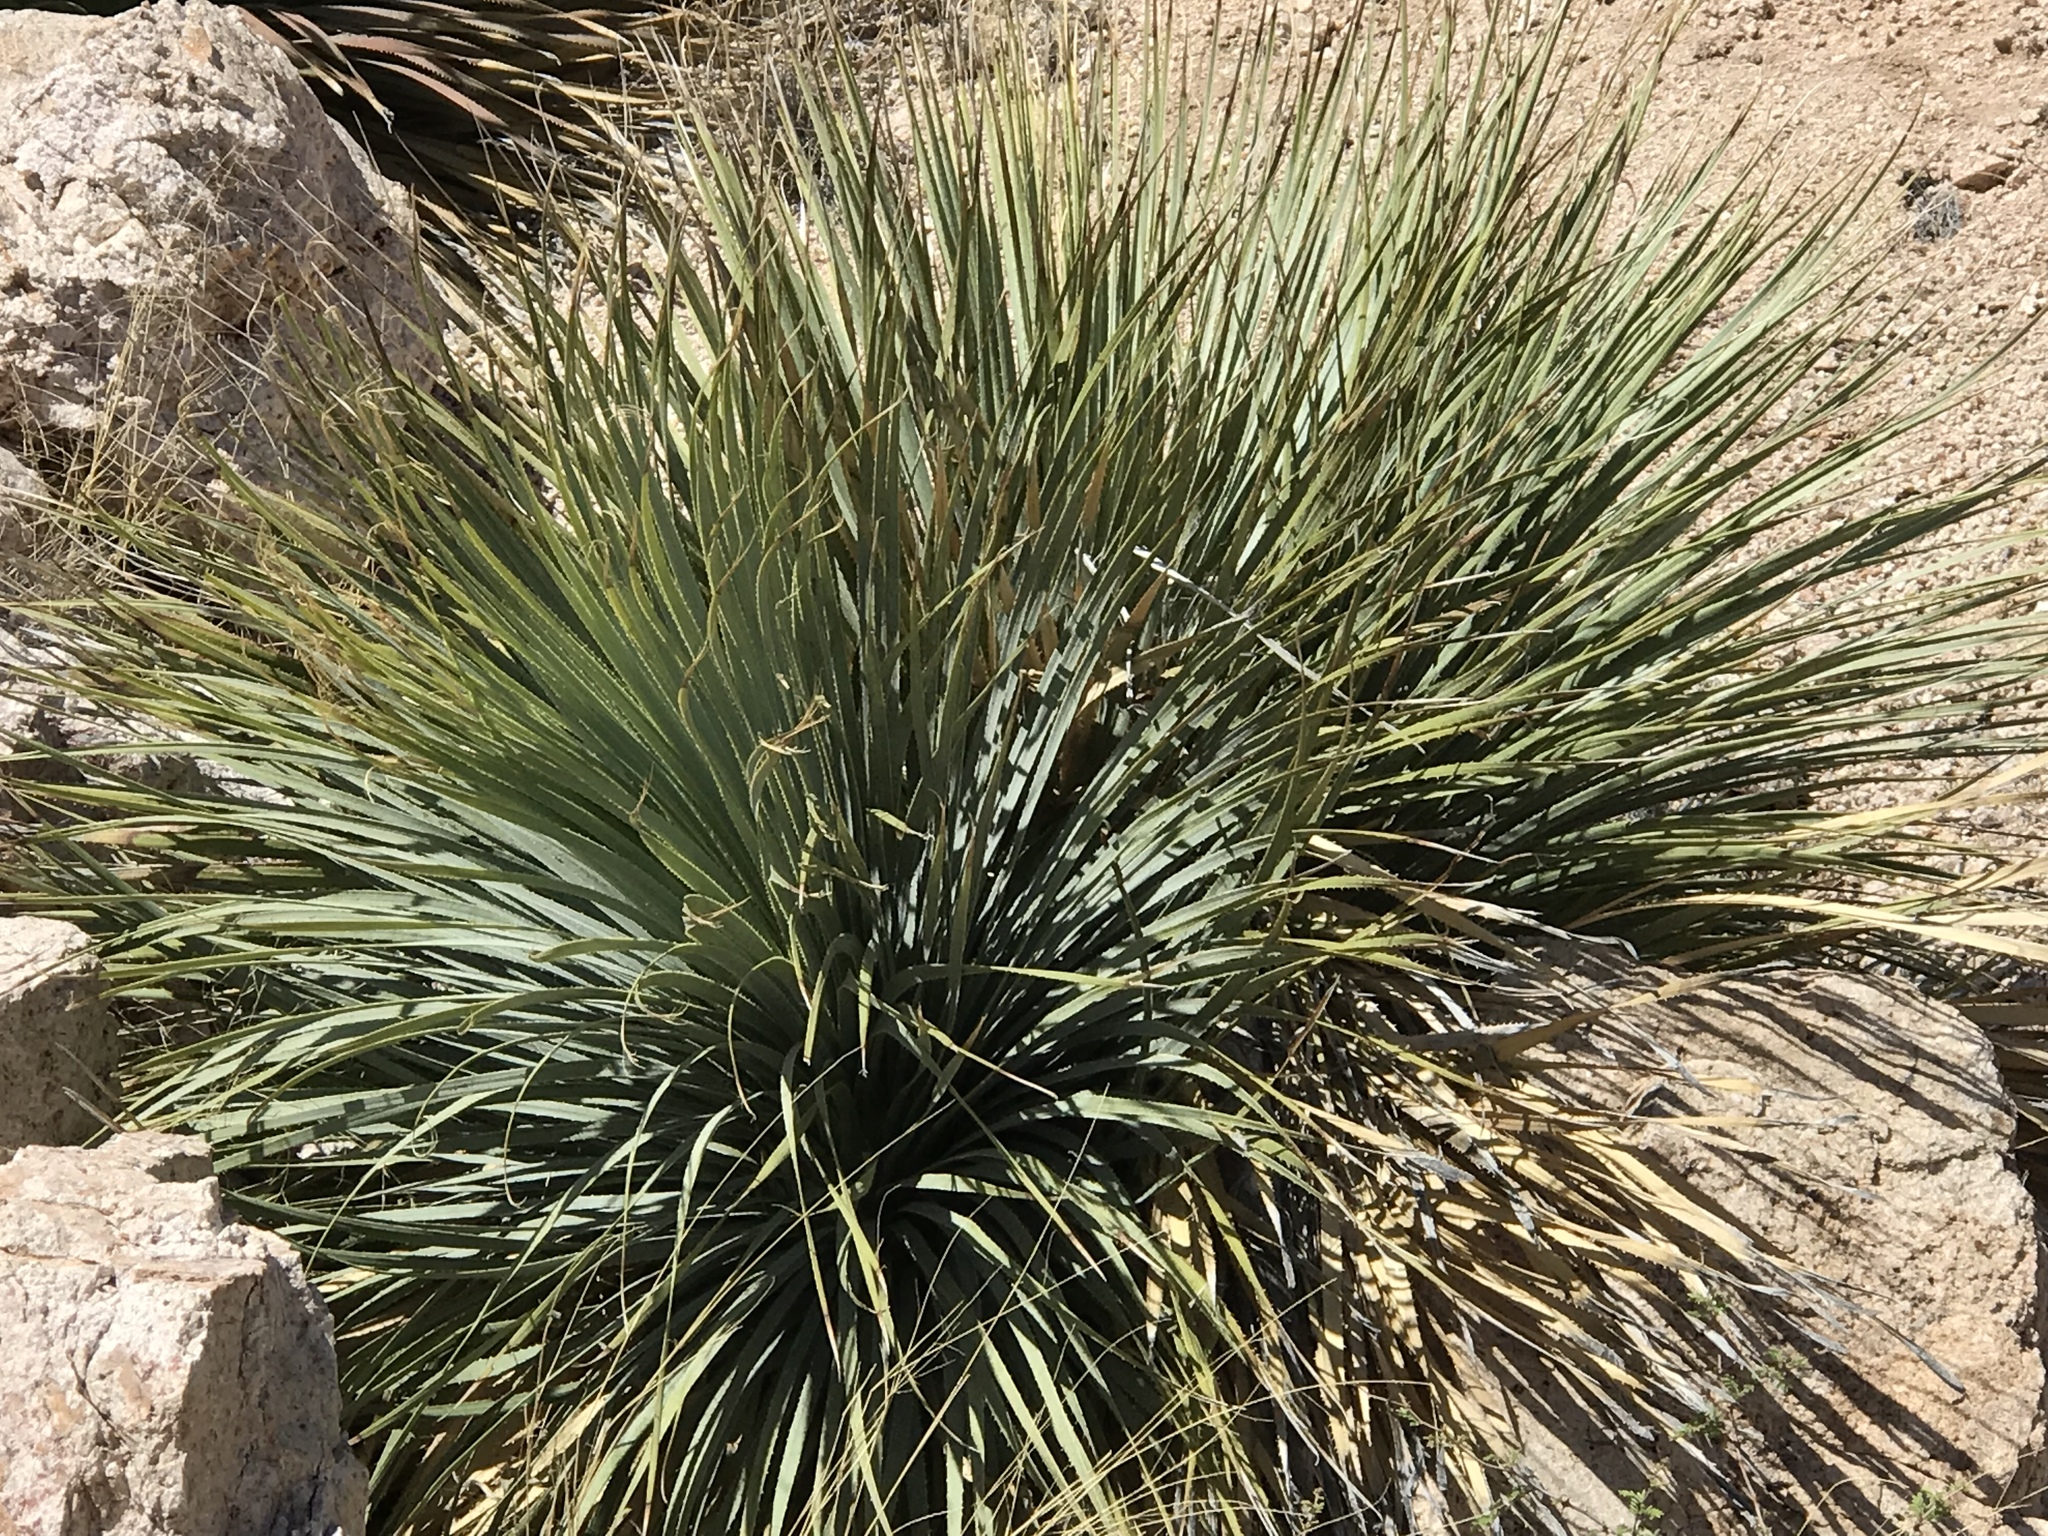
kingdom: Plantae
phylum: Tracheophyta
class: Liliopsida
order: Asparagales
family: Asparagaceae
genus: Dasylirion
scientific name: Dasylirion wheeleri
